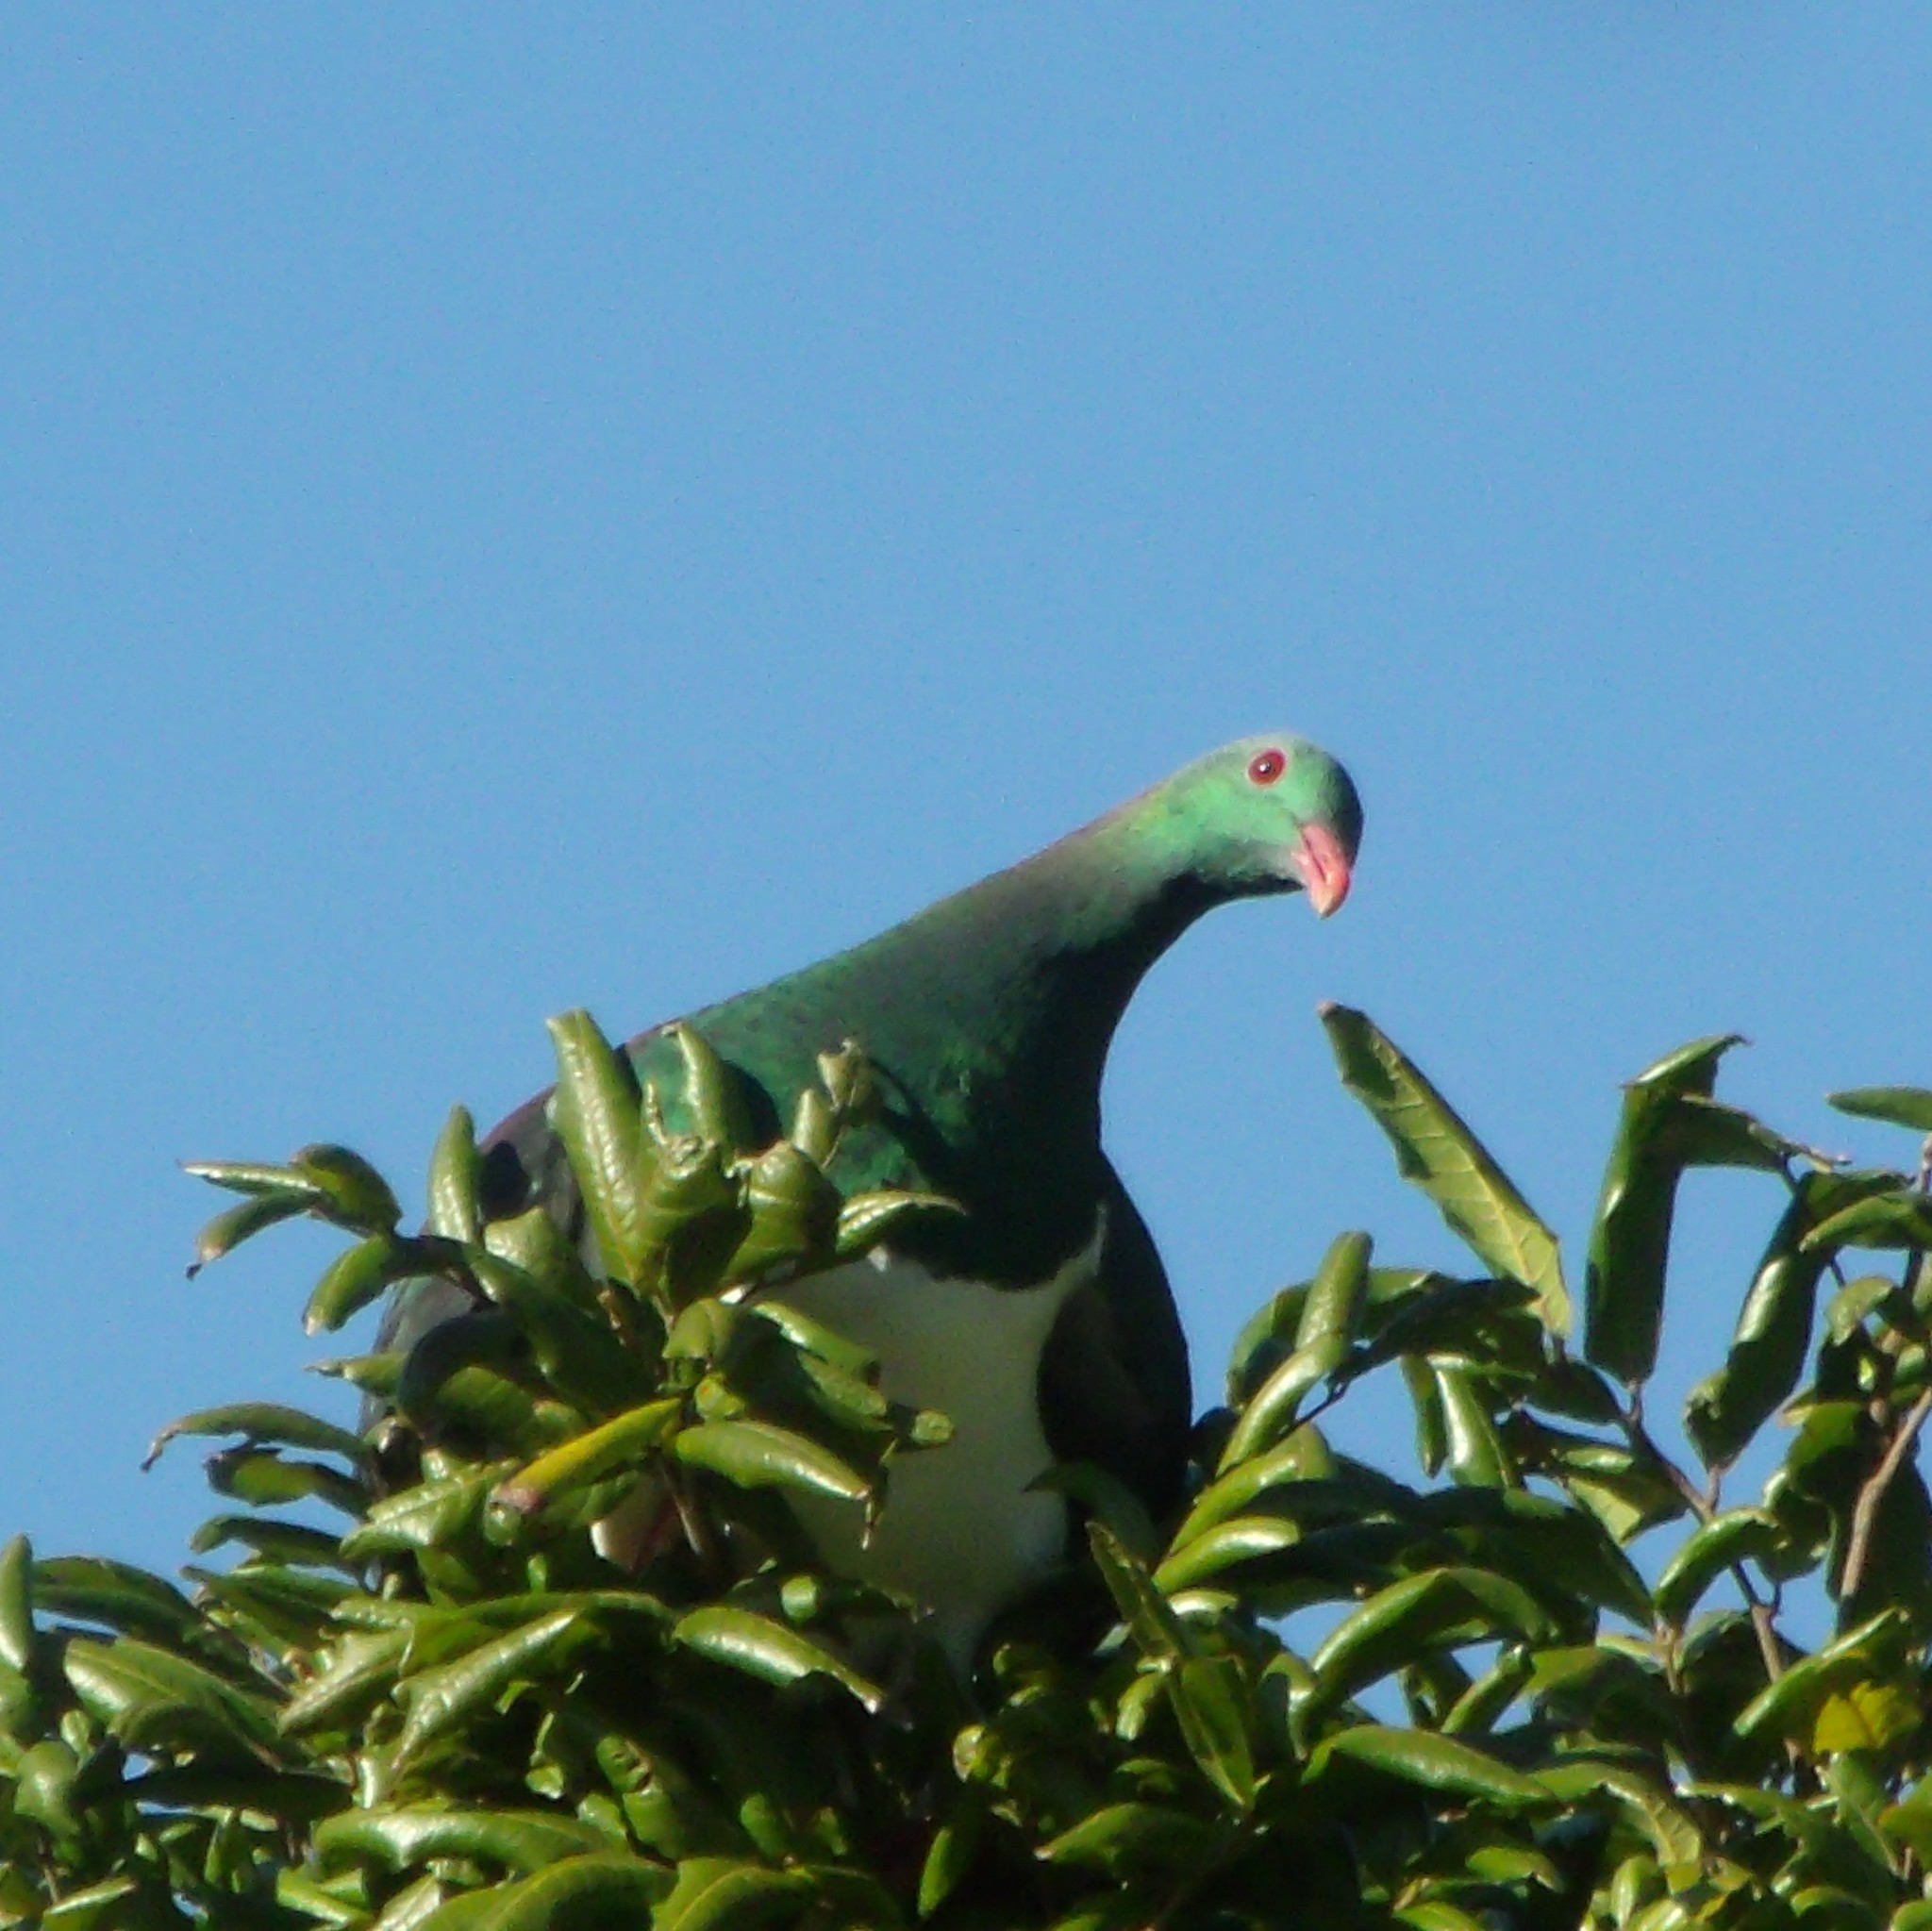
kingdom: Animalia
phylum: Chordata
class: Aves
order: Columbiformes
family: Columbidae
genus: Hemiphaga
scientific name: Hemiphaga novaeseelandiae
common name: New zealand pigeon
